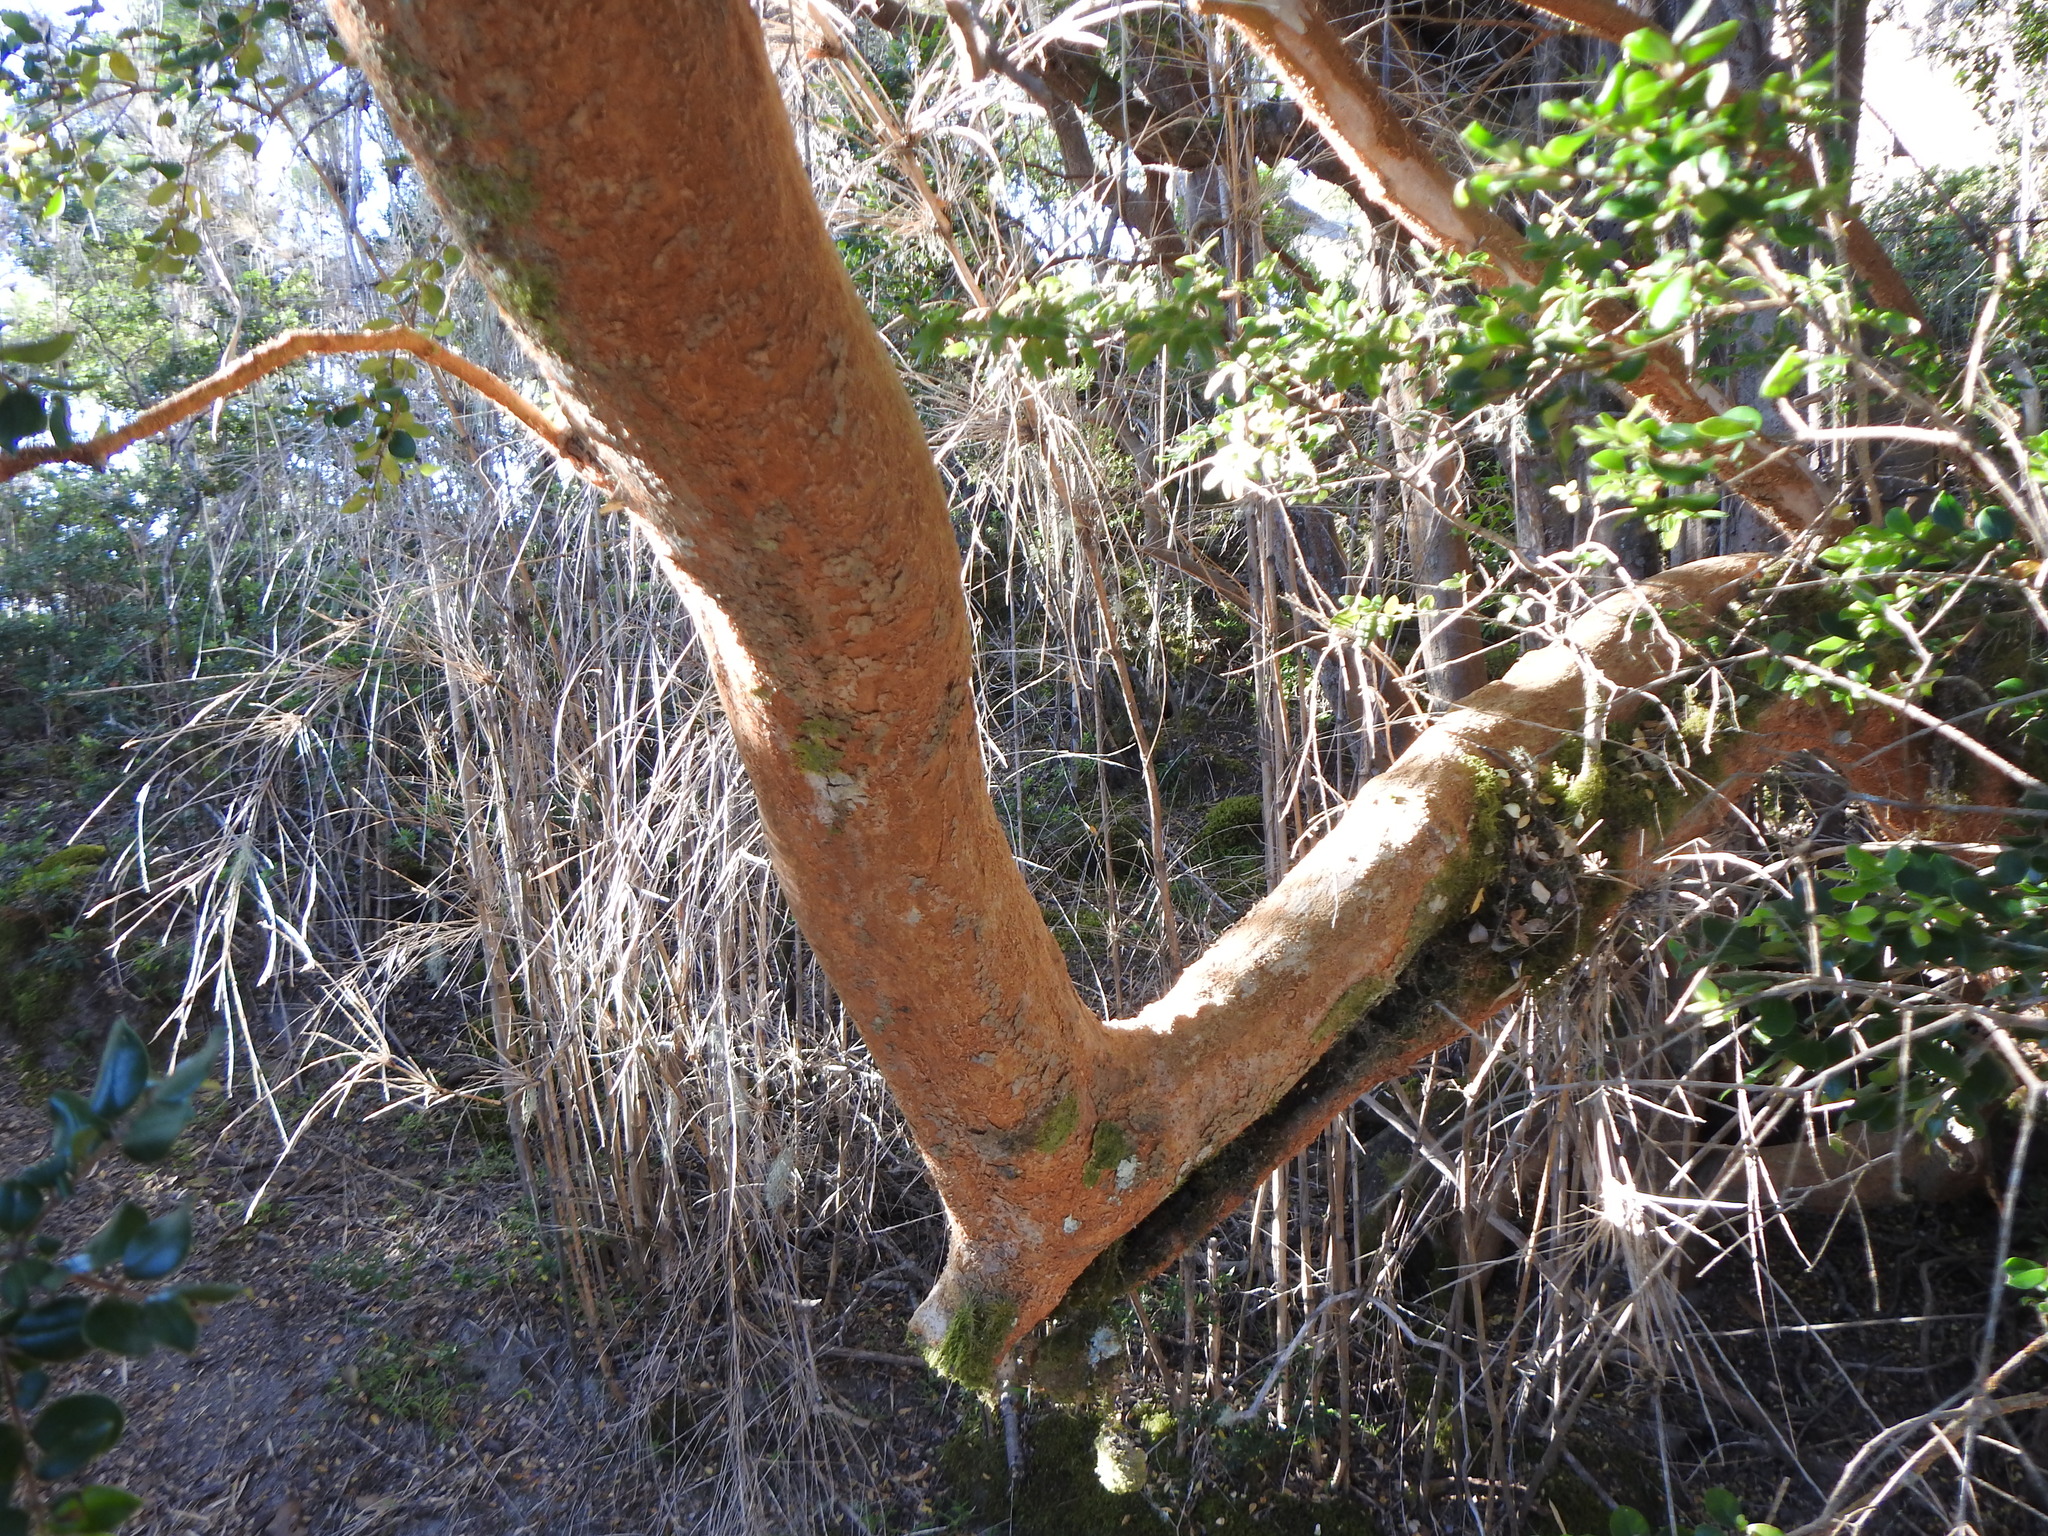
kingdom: Plantae
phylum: Tracheophyta
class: Magnoliopsida
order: Myrtales
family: Myrtaceae
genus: Luma
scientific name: Luma apiculata
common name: Chilean myrtle
